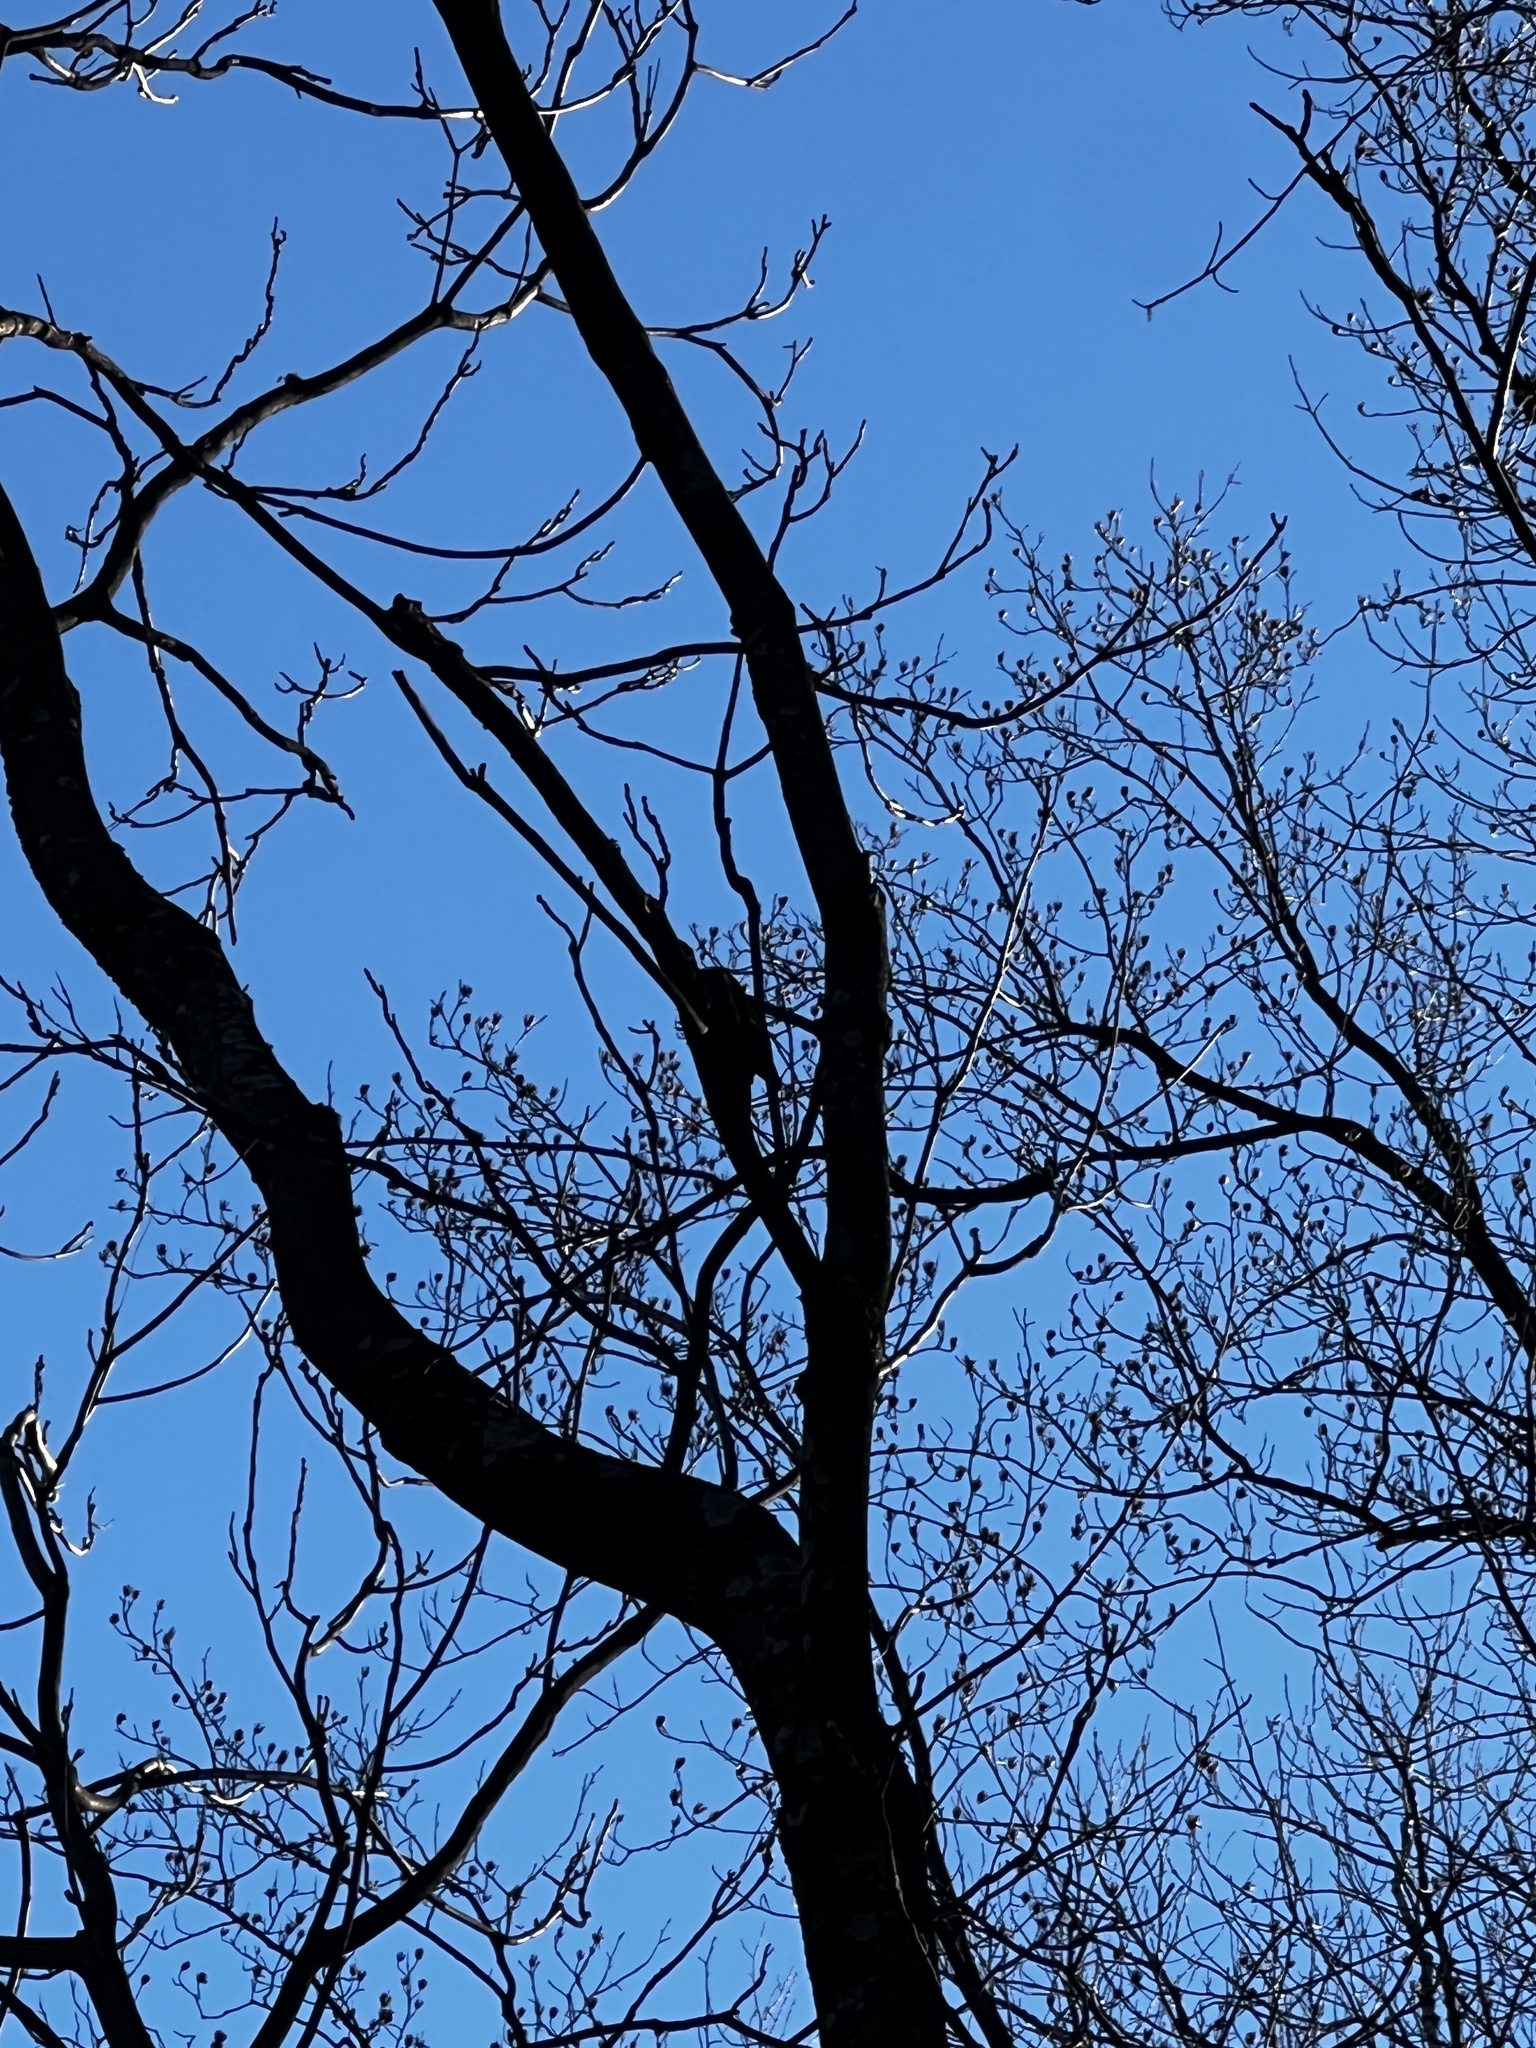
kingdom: Animalia
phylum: Chordata
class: Aves
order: Piciformes
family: Picidae
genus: Dryocopus
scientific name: Dryocopus pileatus
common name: Pileated woodpecker
